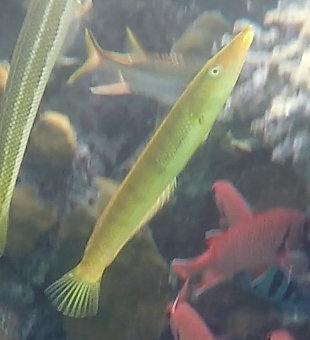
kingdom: Animalia
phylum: Chordata
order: Perciformes
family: Labridae
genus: Cheilio
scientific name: Cheilio inermis
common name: Cigar wrasse
